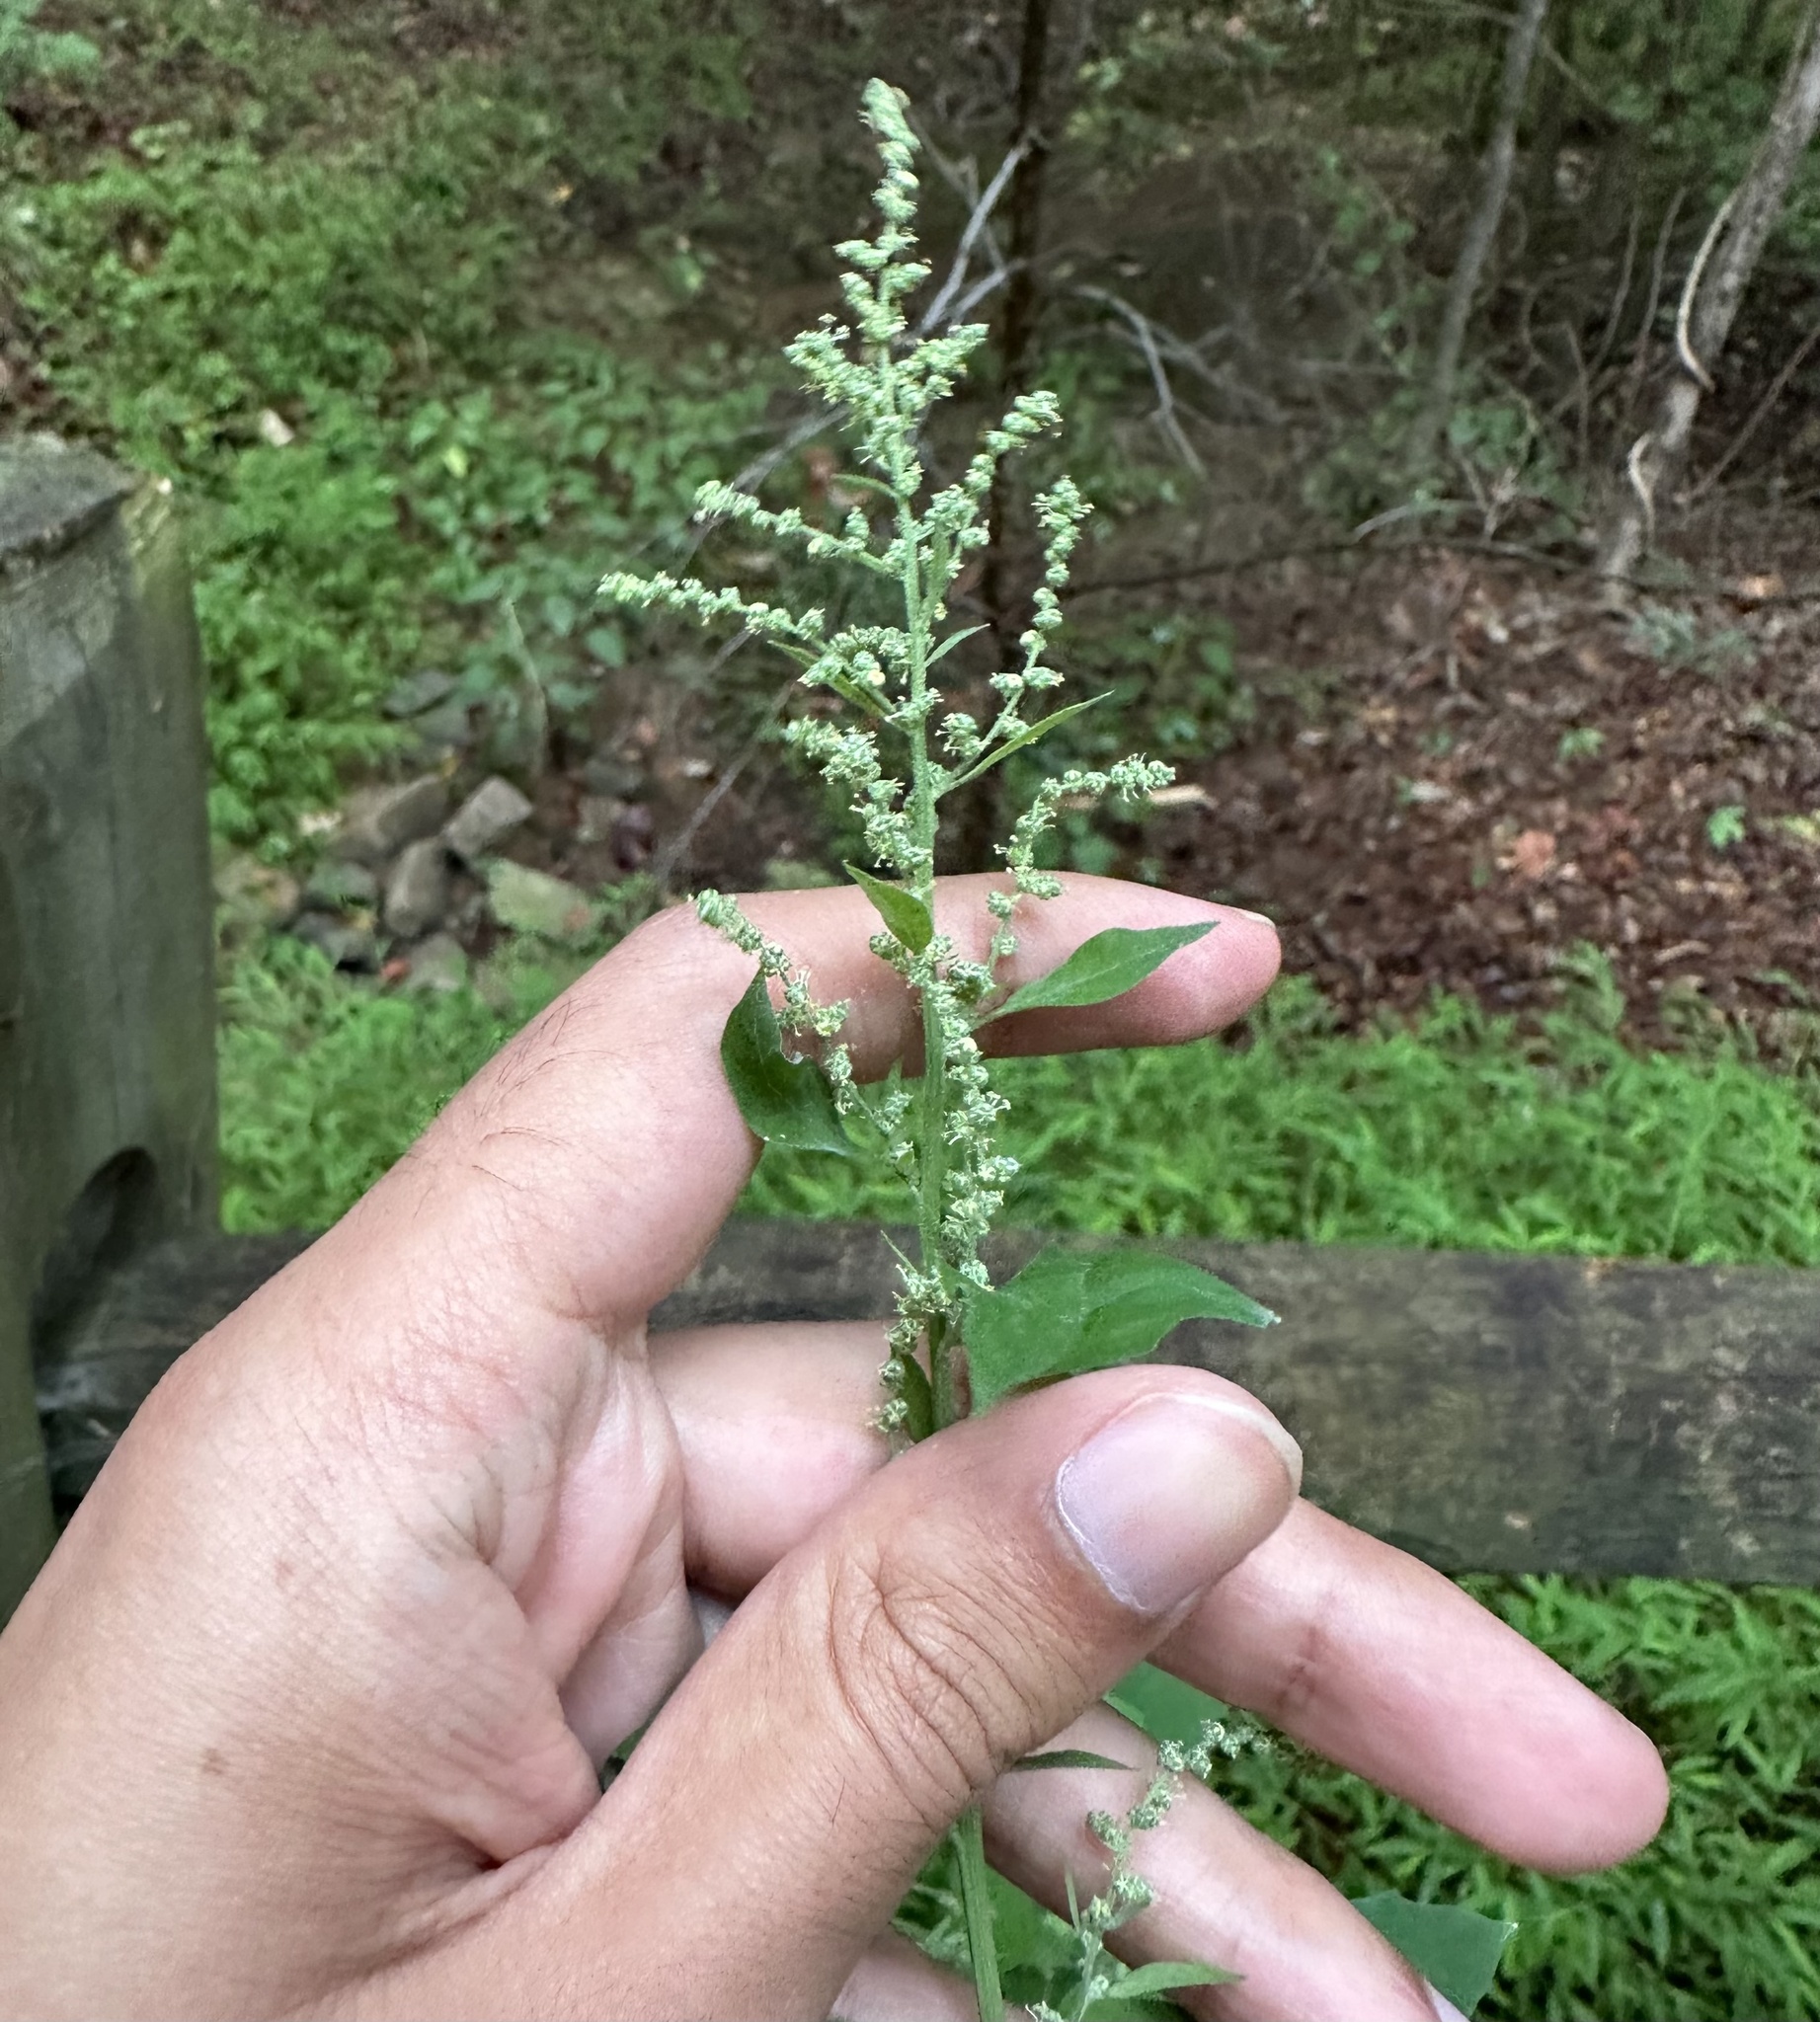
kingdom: Plantae
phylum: Tracheophyta
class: Magnoliopsida
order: Caryophyllales
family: Amaranthaceae
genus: Chenopodium
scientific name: Chenopodium album
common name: Fat-hen
